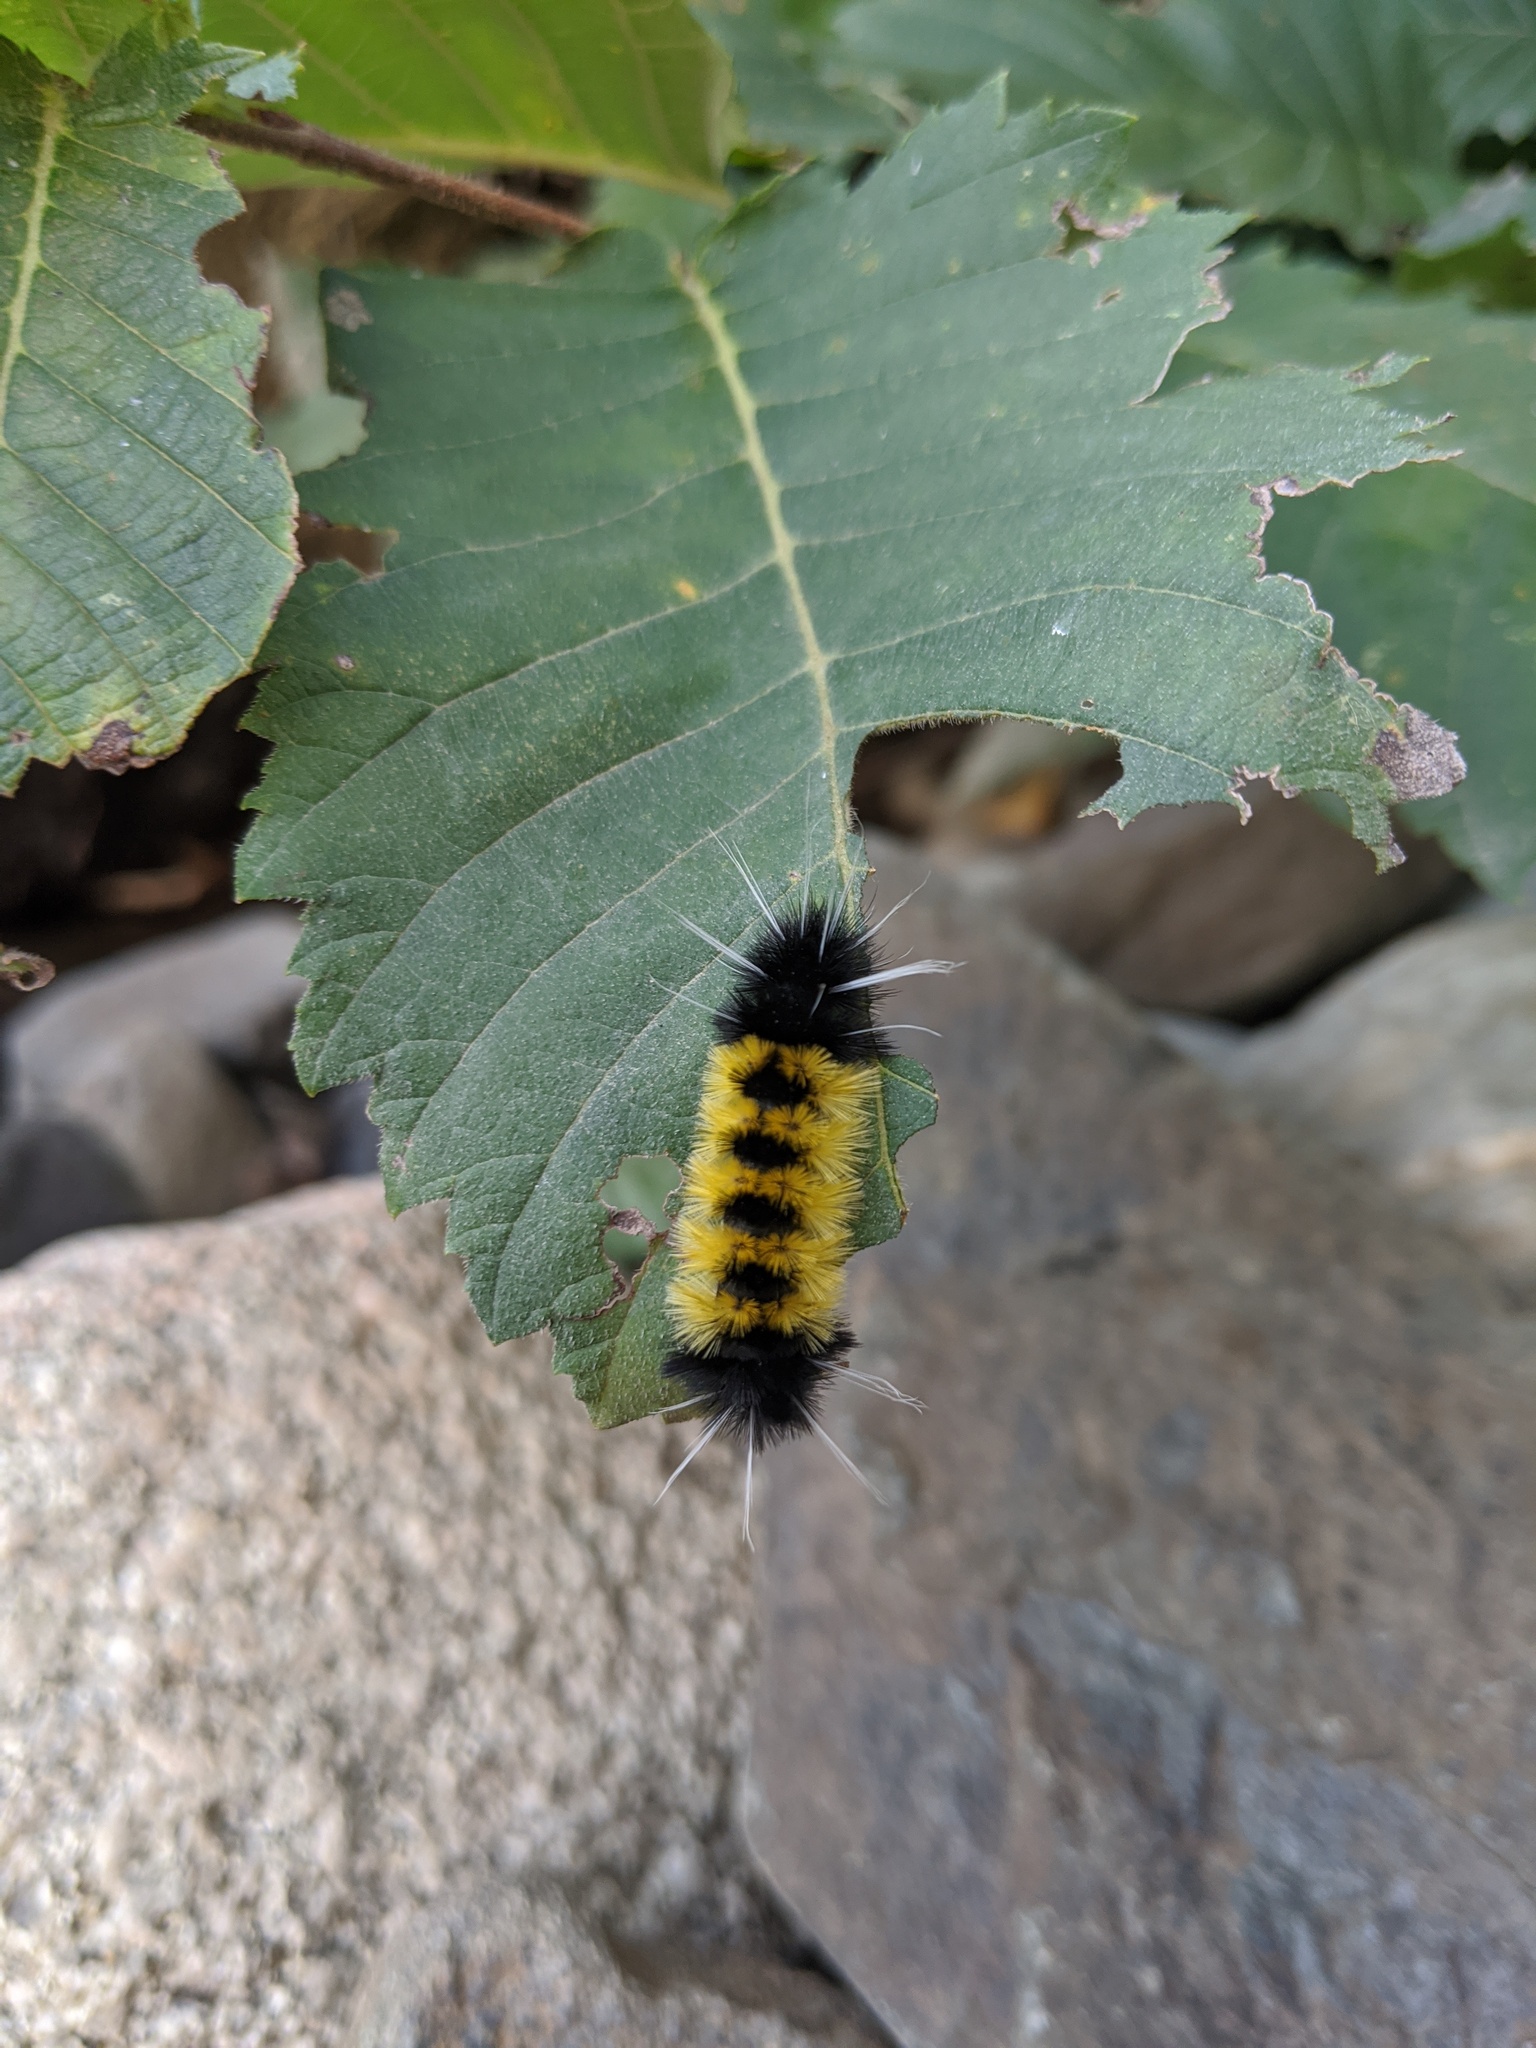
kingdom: Animalia
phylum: Arthropoda
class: Insecta
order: Lepidoptera
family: Erebidae
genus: Lophocampa
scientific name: Lophocampa maculata
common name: Spotted tussock moth
